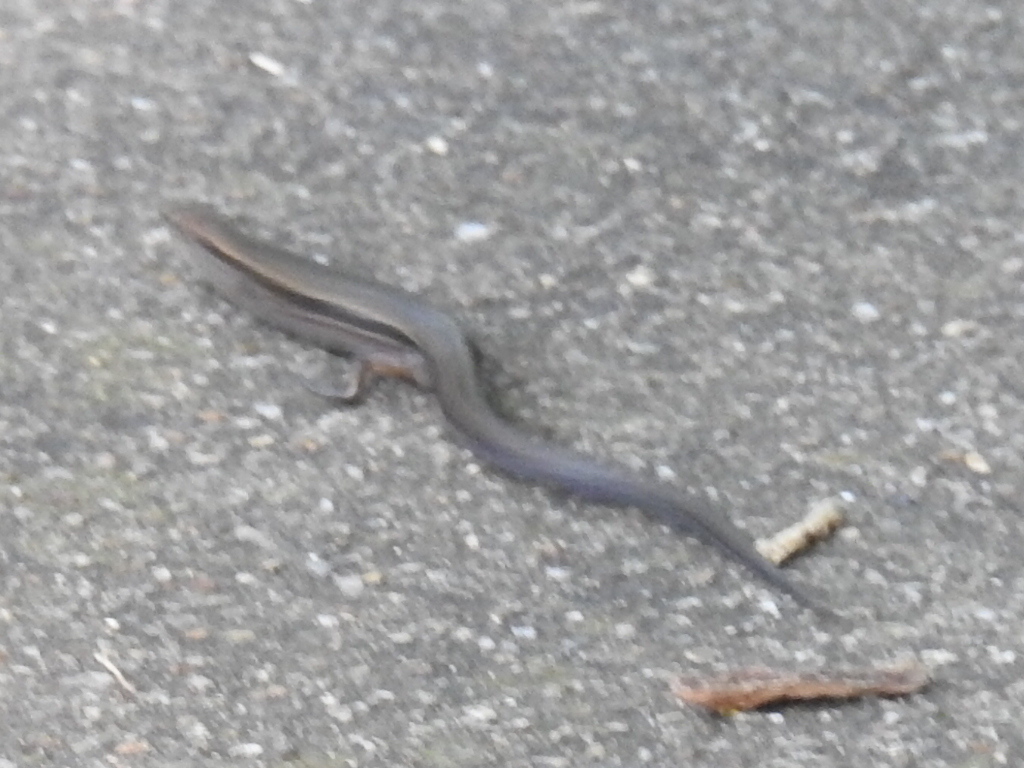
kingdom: Animalia
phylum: Chordata
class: Squamata
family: Scincidae
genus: Scincella
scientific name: Scincella lateralis
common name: Ground skink
